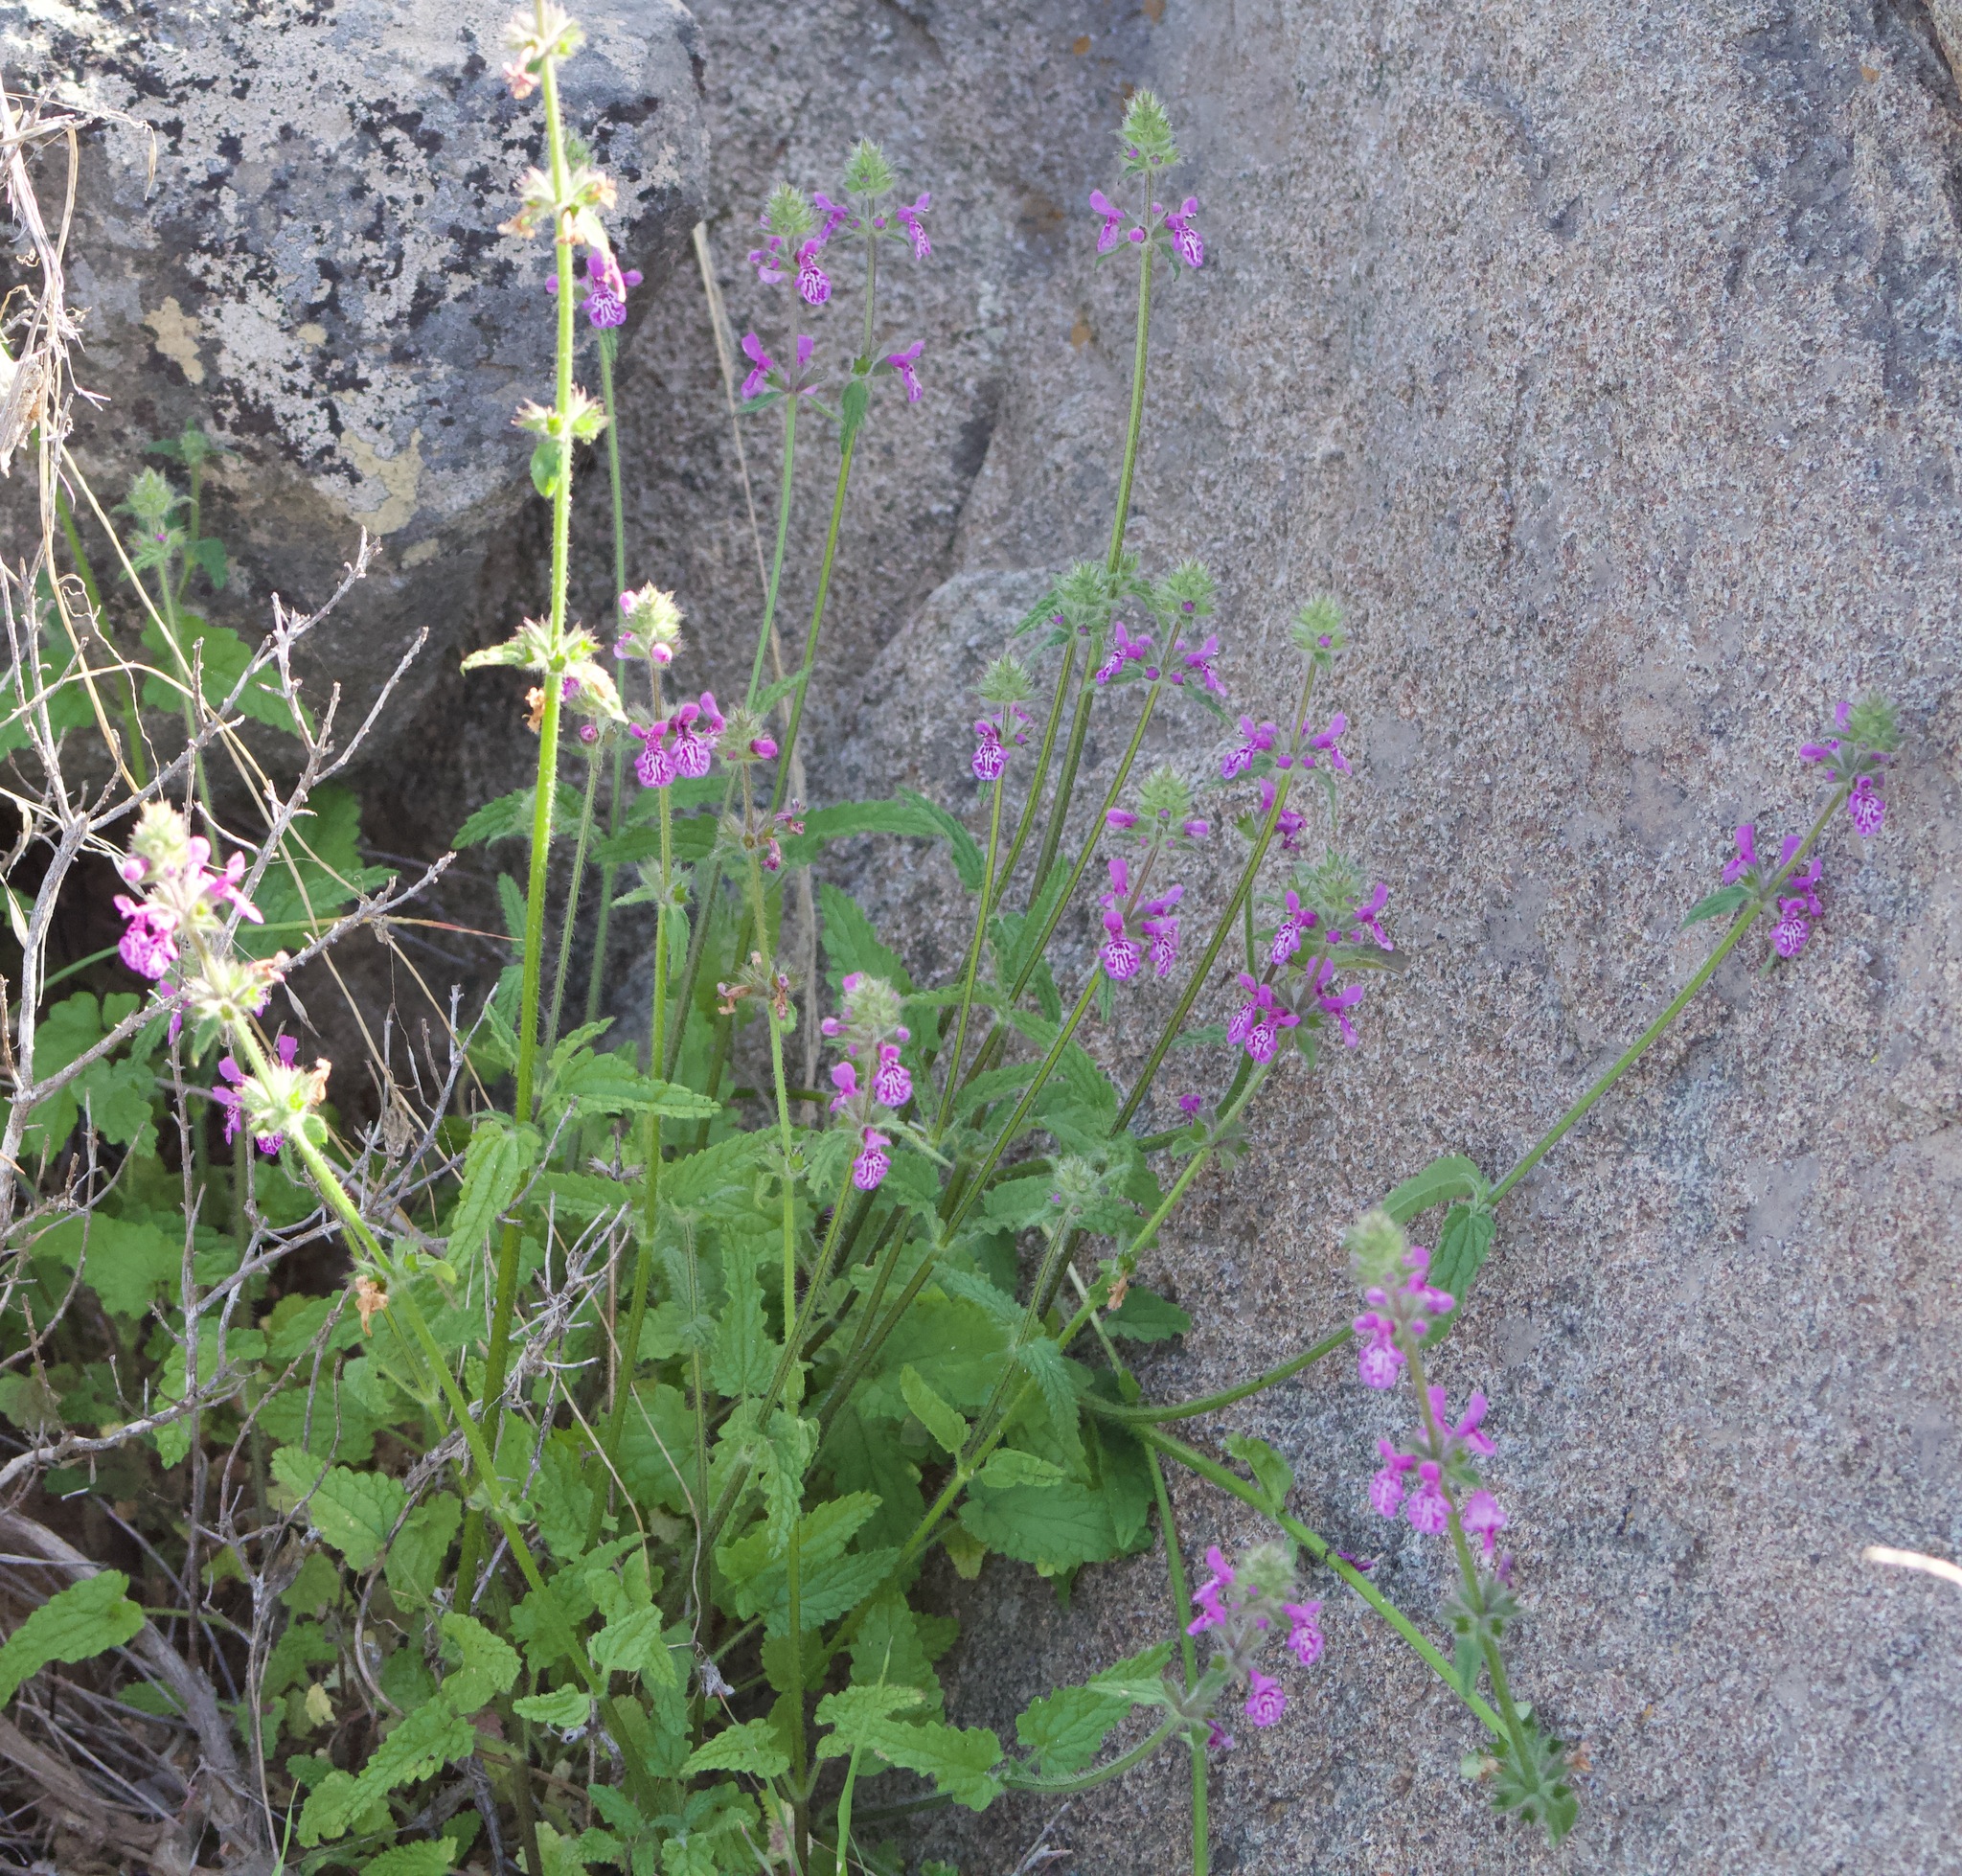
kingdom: Plantae
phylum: Tracheophyta
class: Magnoliopsida
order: Lamiales
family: Lamiaceae
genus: Stachys
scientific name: Stachys grandidentata
